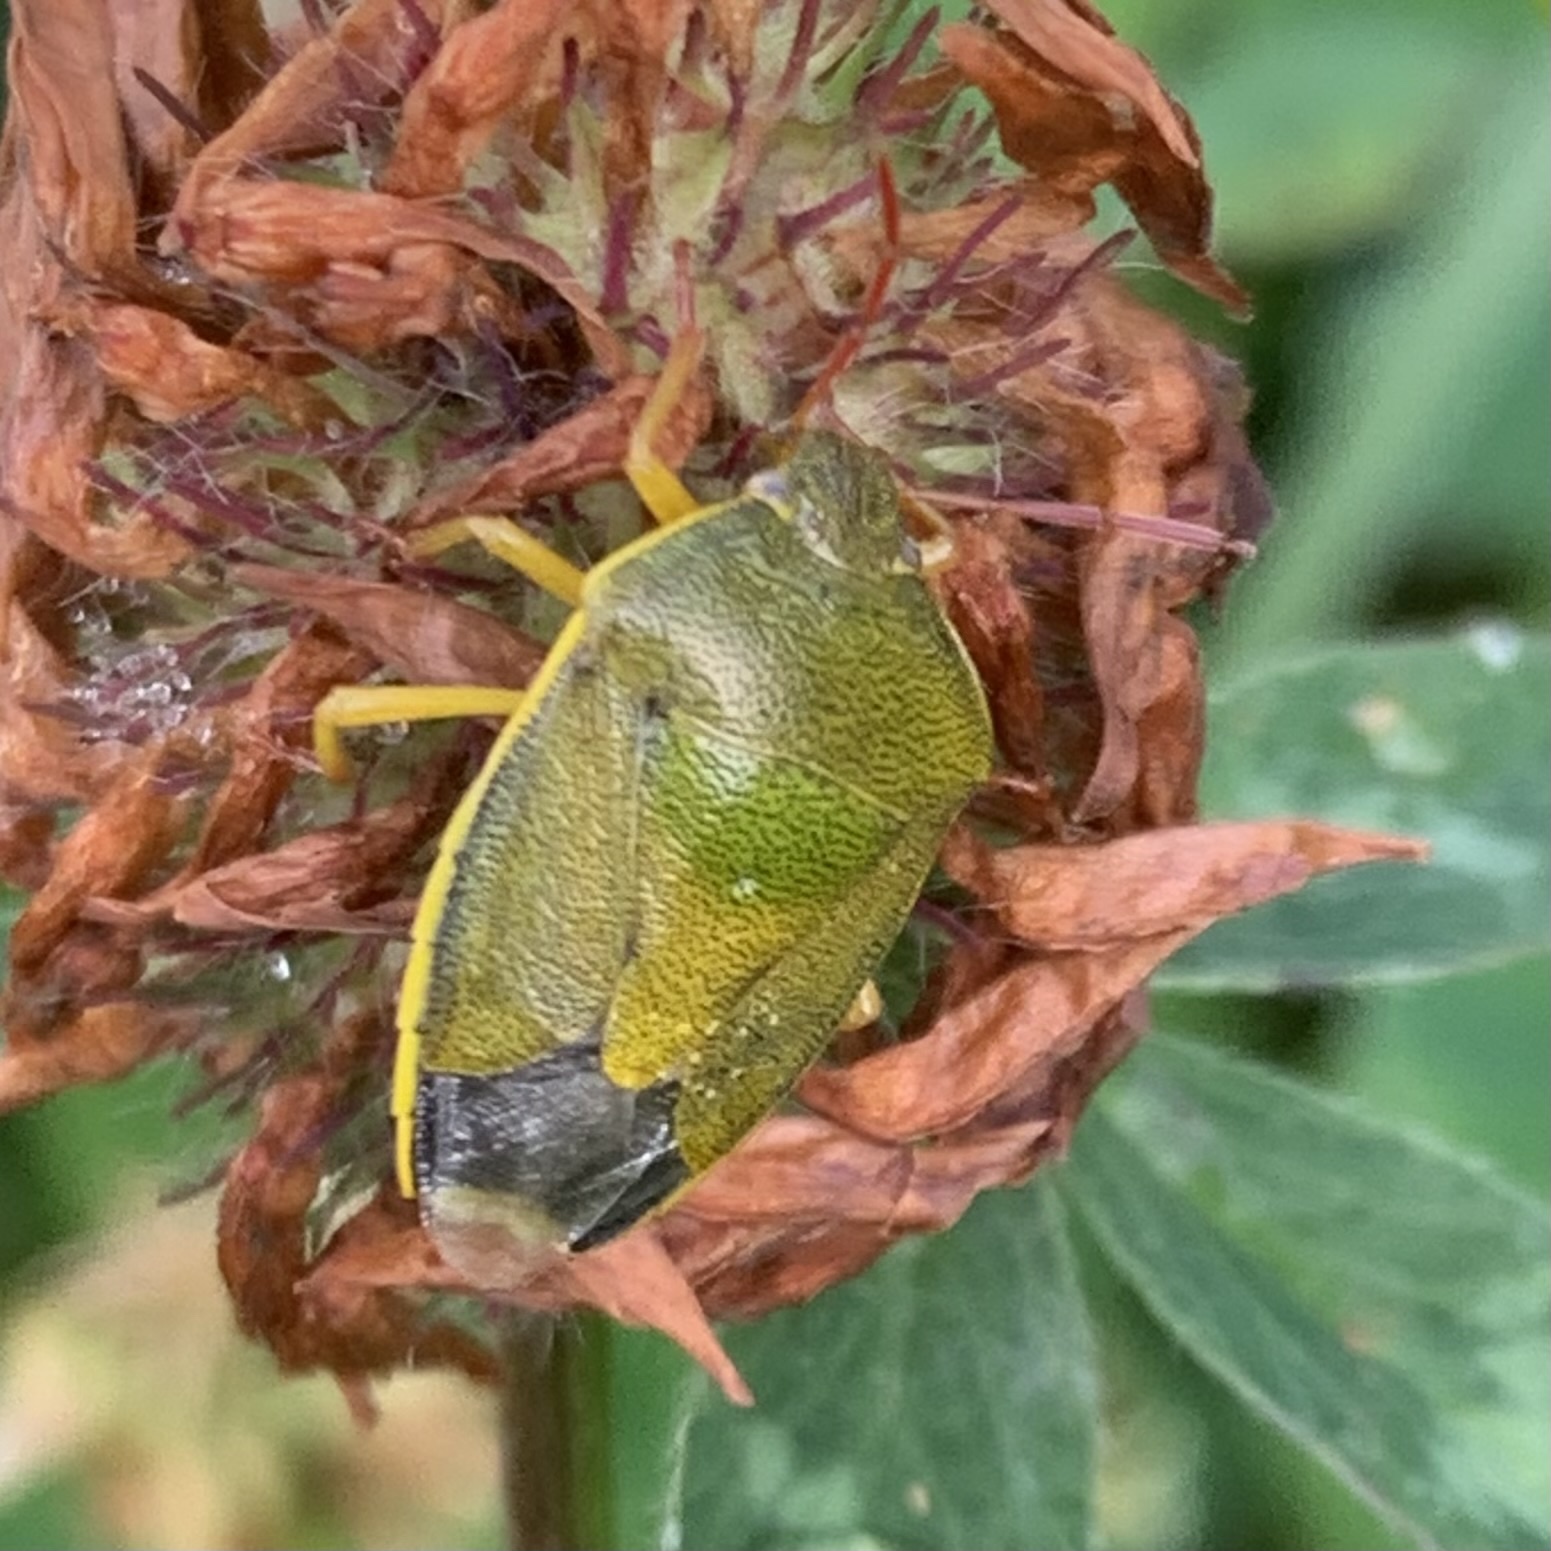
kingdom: Animalia
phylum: Arthropoda
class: Insecta
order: Hemiptera
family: Pentatomidae
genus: Piezodorus
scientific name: Piezodorus lituratus
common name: Stink bug
